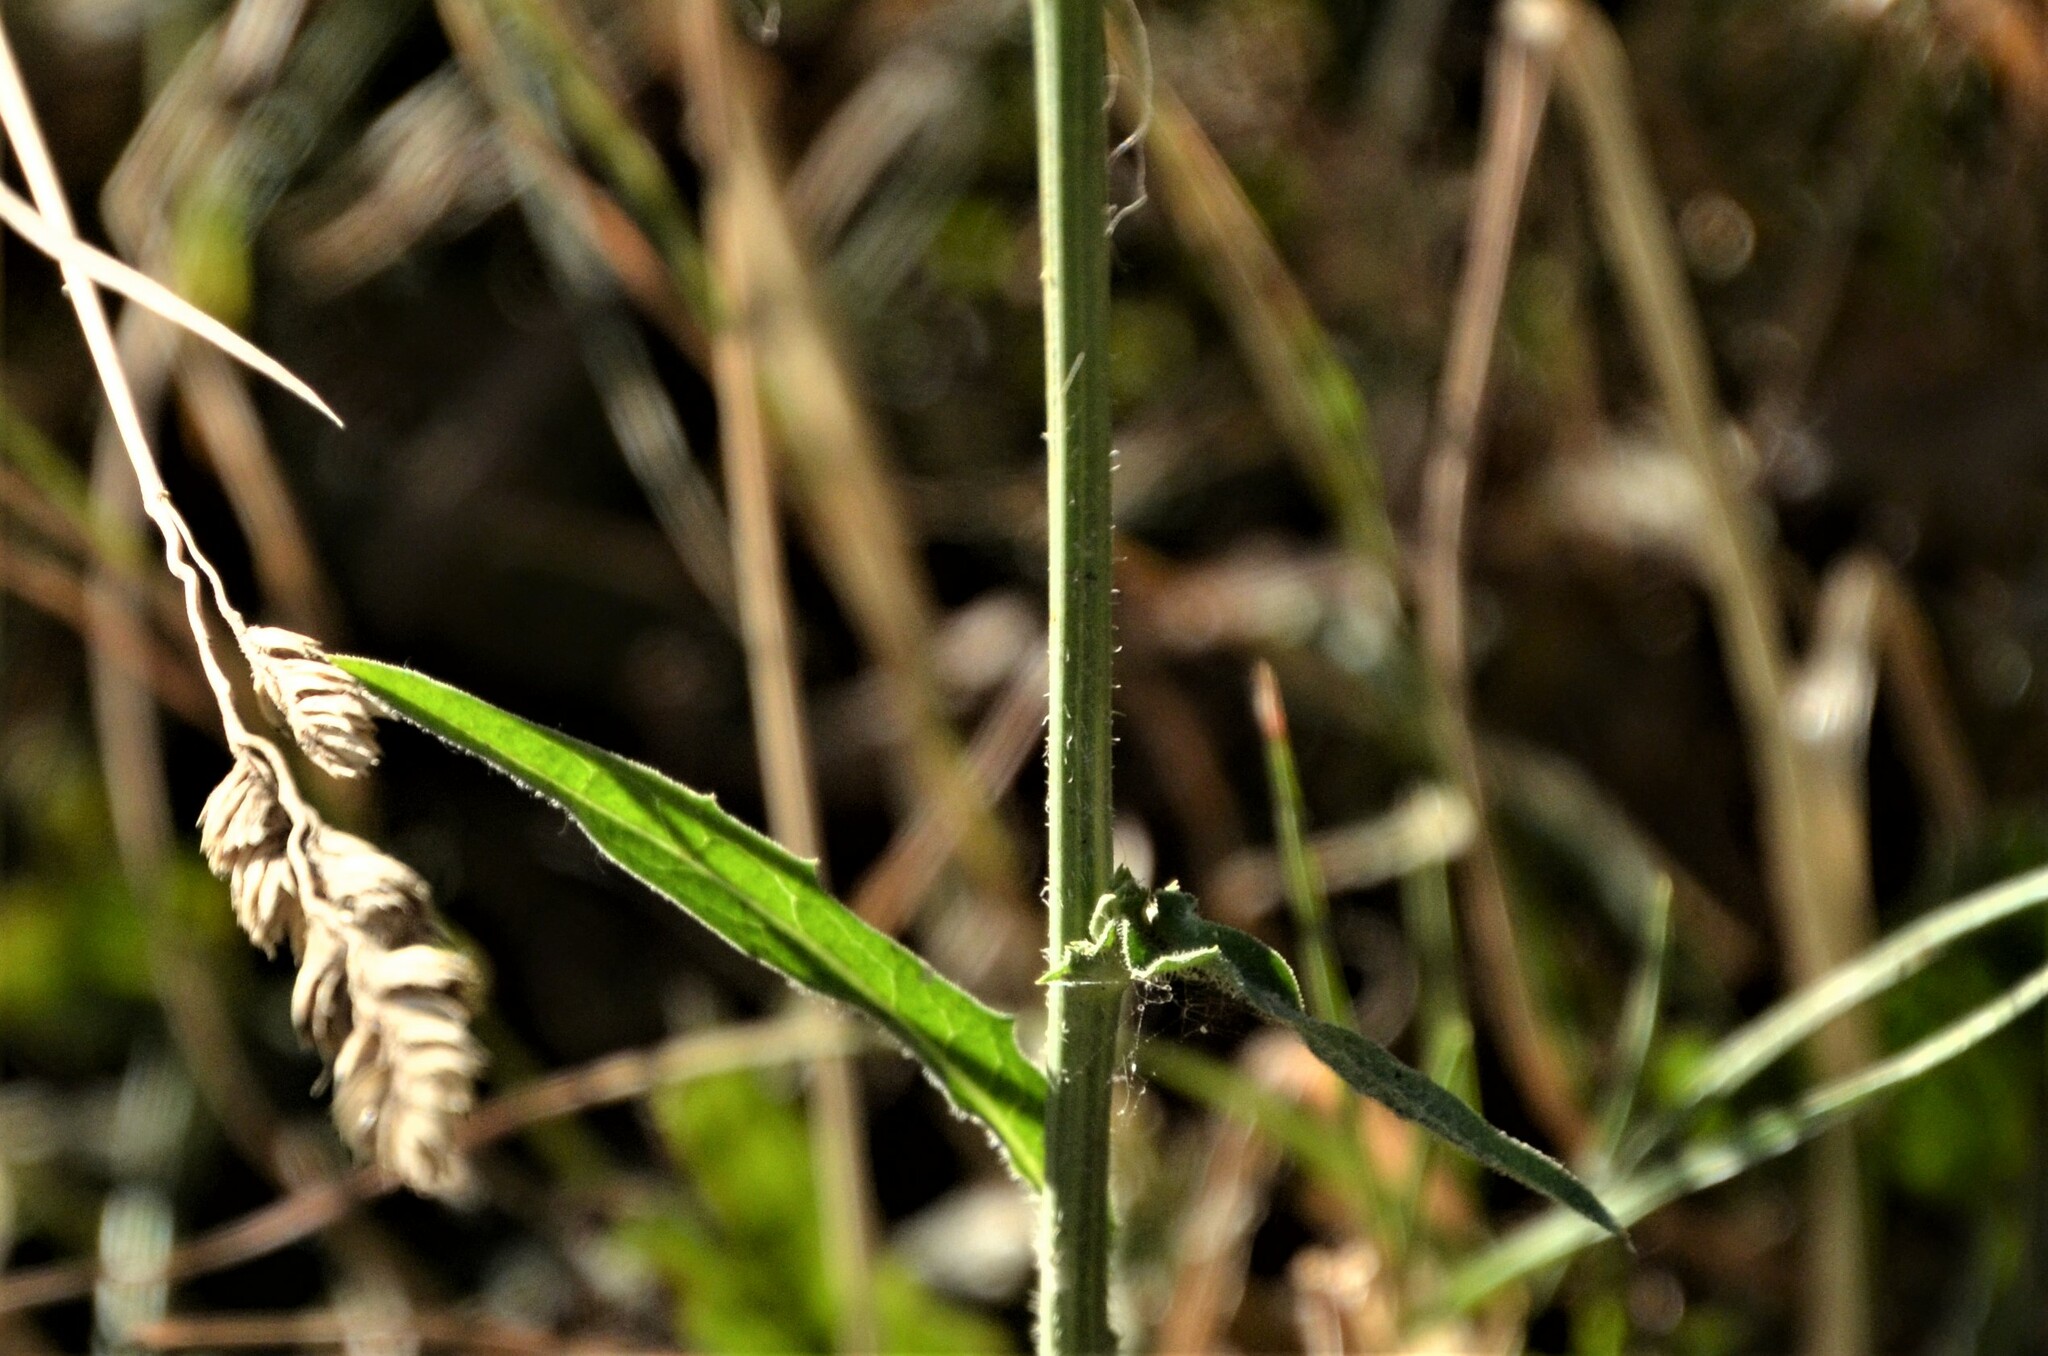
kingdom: Plantae
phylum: Tracheophyta
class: Magnoliopsida
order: Asterales
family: Asteraceae
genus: Cichorium
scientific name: Cichorium intybus
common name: Chicory
